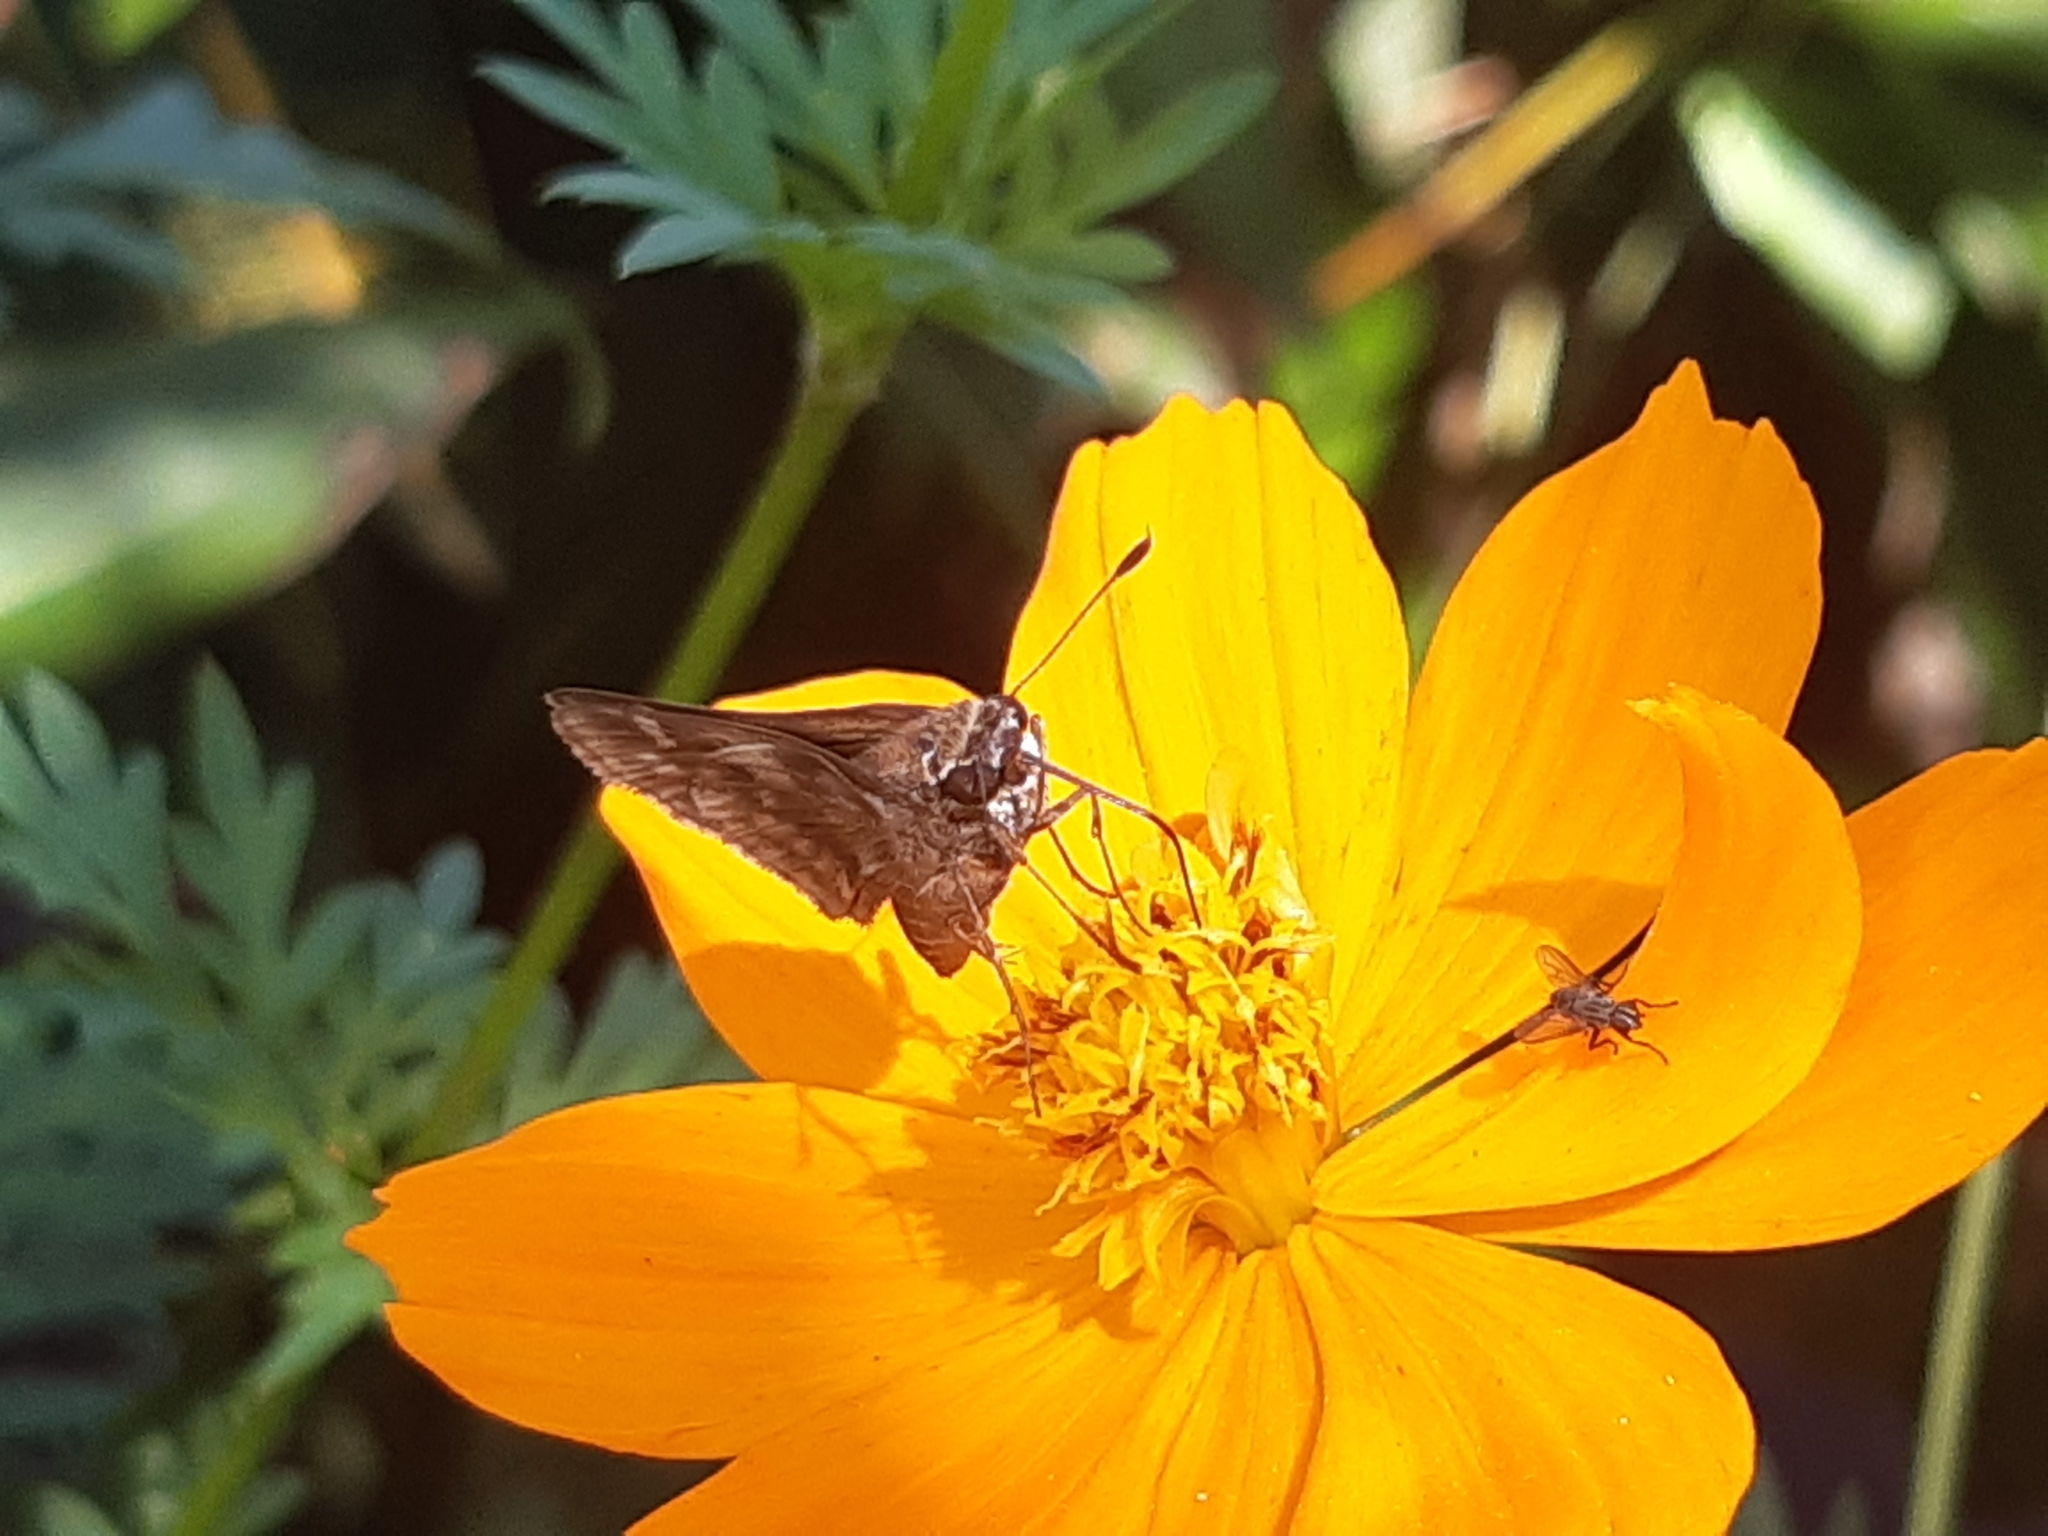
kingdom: Animalia
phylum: Arthropoda
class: Insecta
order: Lepidoptera
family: Hesperiidae
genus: Pompeius
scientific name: Pompeius pompeius
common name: Pompeius skipper
